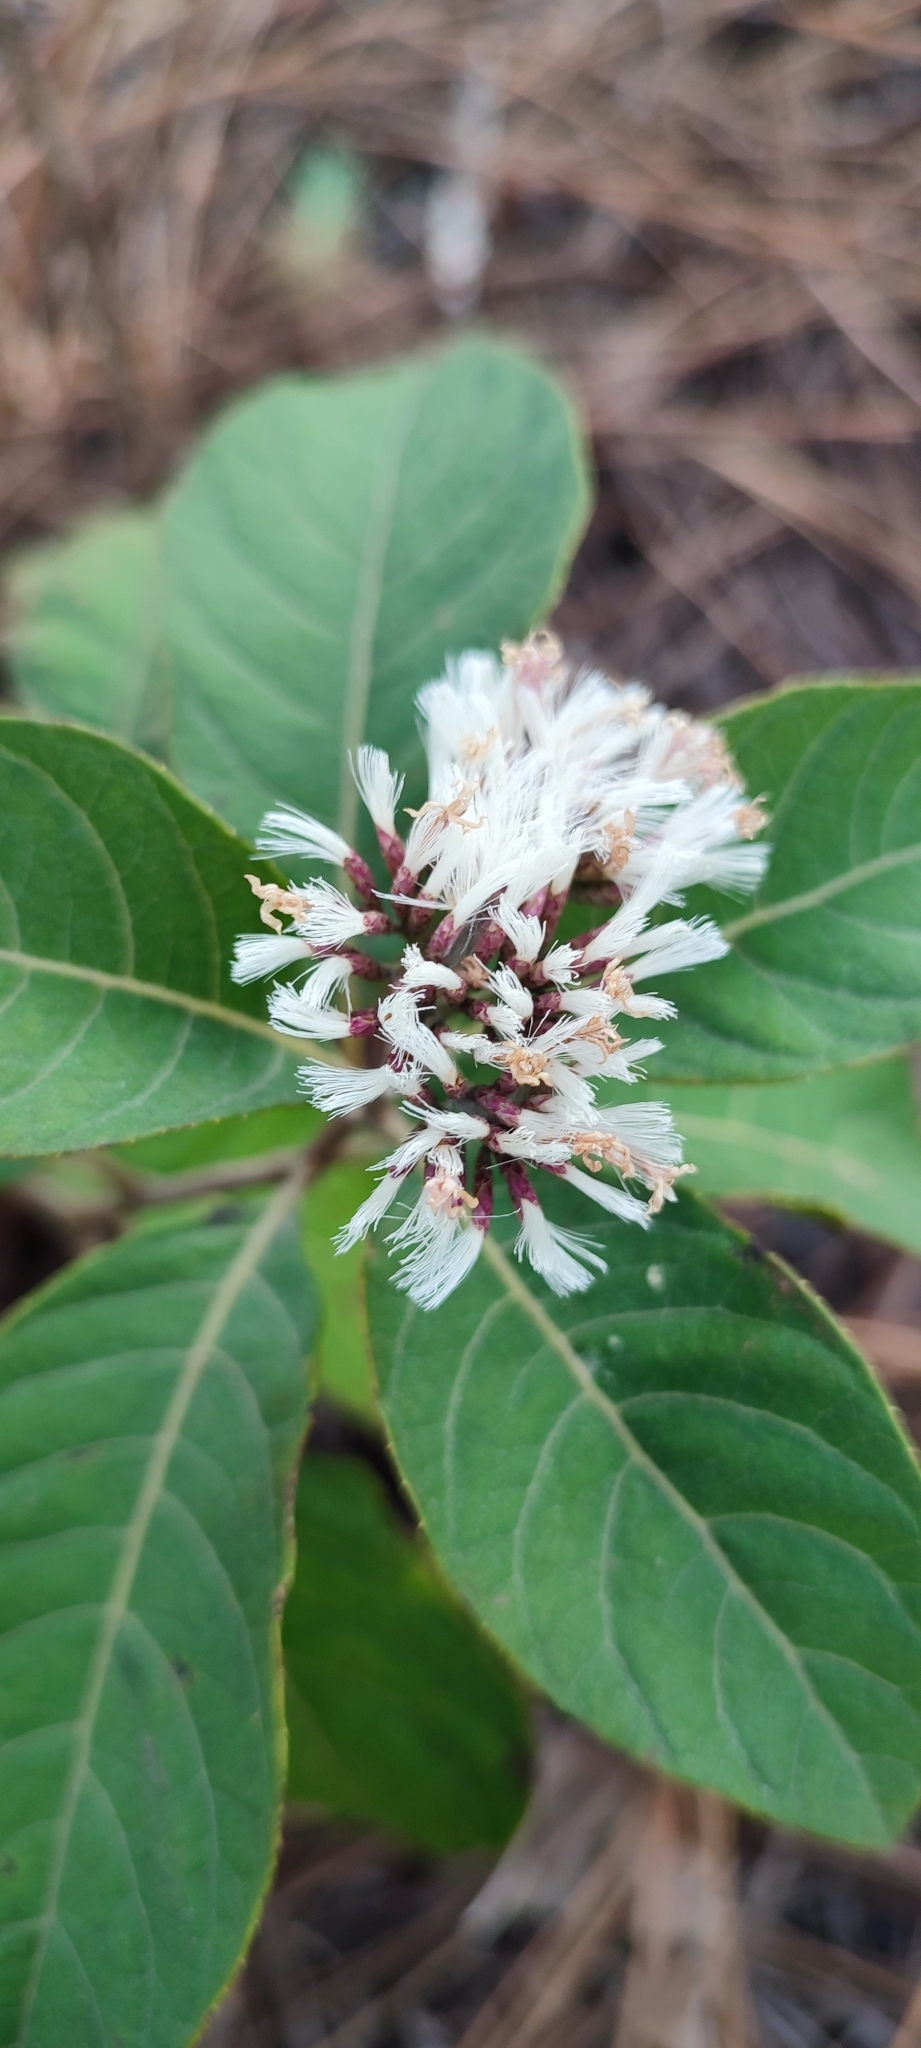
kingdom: Plantae
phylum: Tracheophyta
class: Magnoliopsida
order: Asterales
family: Asteraceae
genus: Eremosis
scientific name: Eremosis baadii
